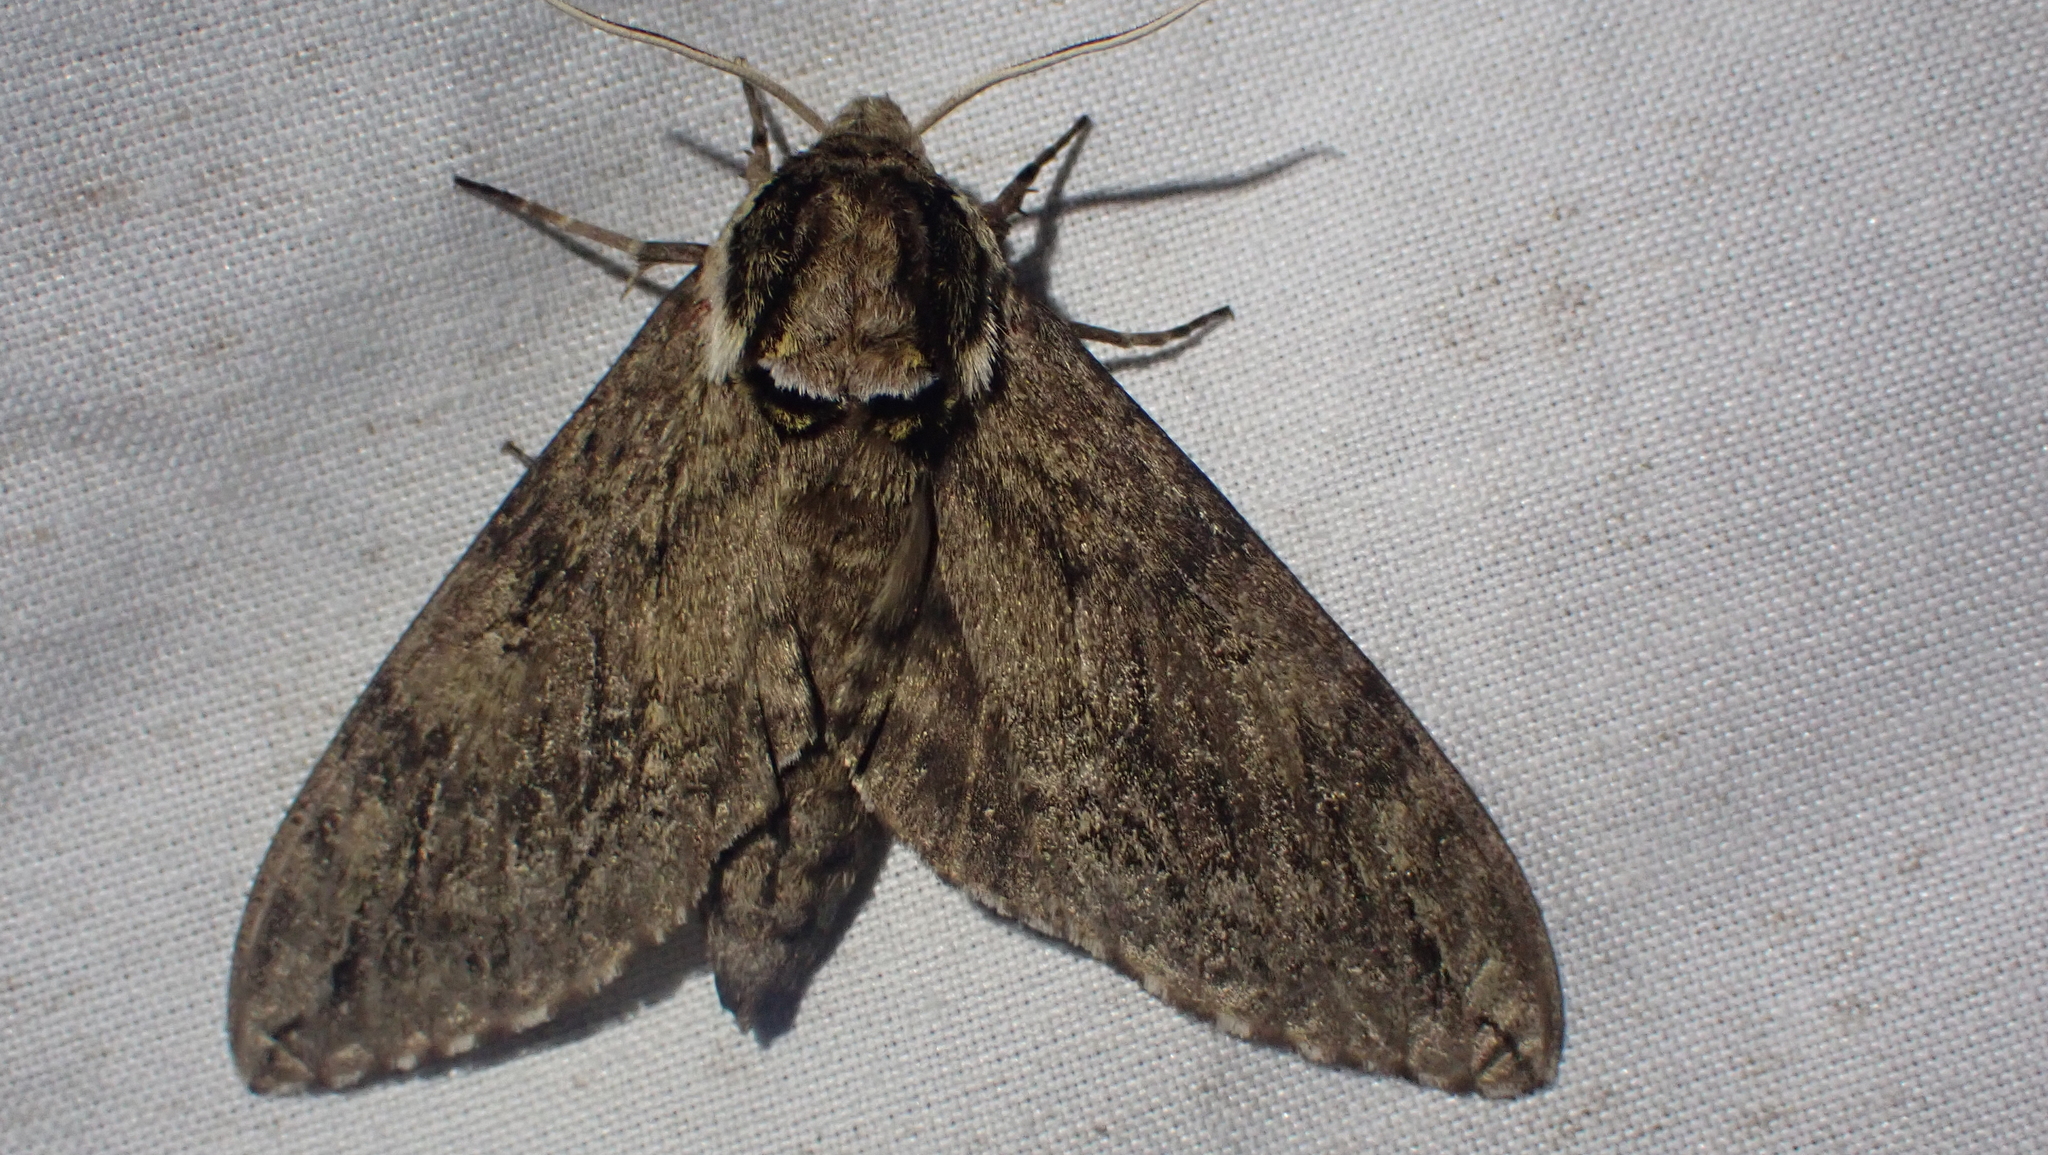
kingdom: Animalia
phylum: Arthropoda
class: Insecta
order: Lepidoptera
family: Sphingidae
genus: Ceratomia
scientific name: Ceratomia catalpae
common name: Catalpa hornworm
